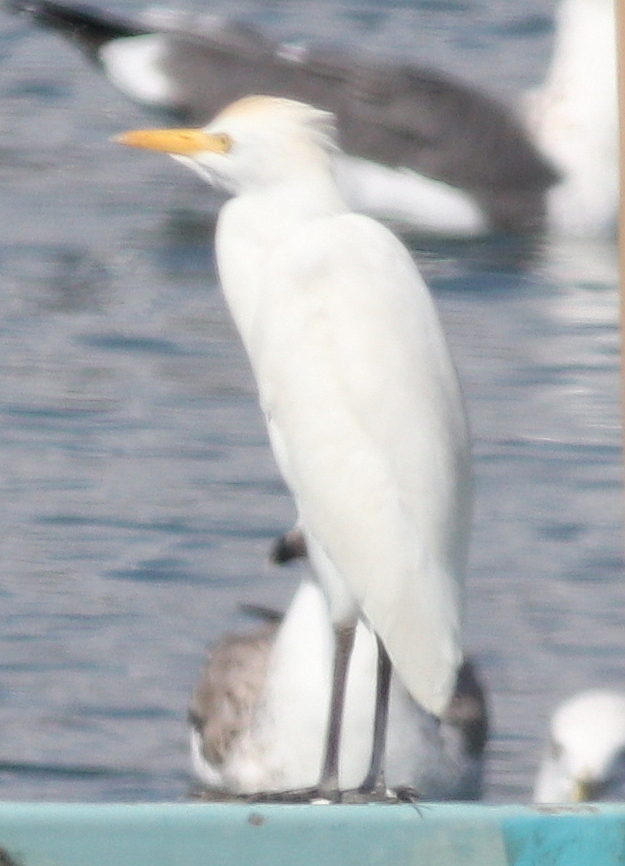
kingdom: Animalia
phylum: Chordata
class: Aves
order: Pelecaniformes
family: Ardeidae
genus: Bubulcus
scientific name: Bubulcus ibis
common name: Cattle egret
